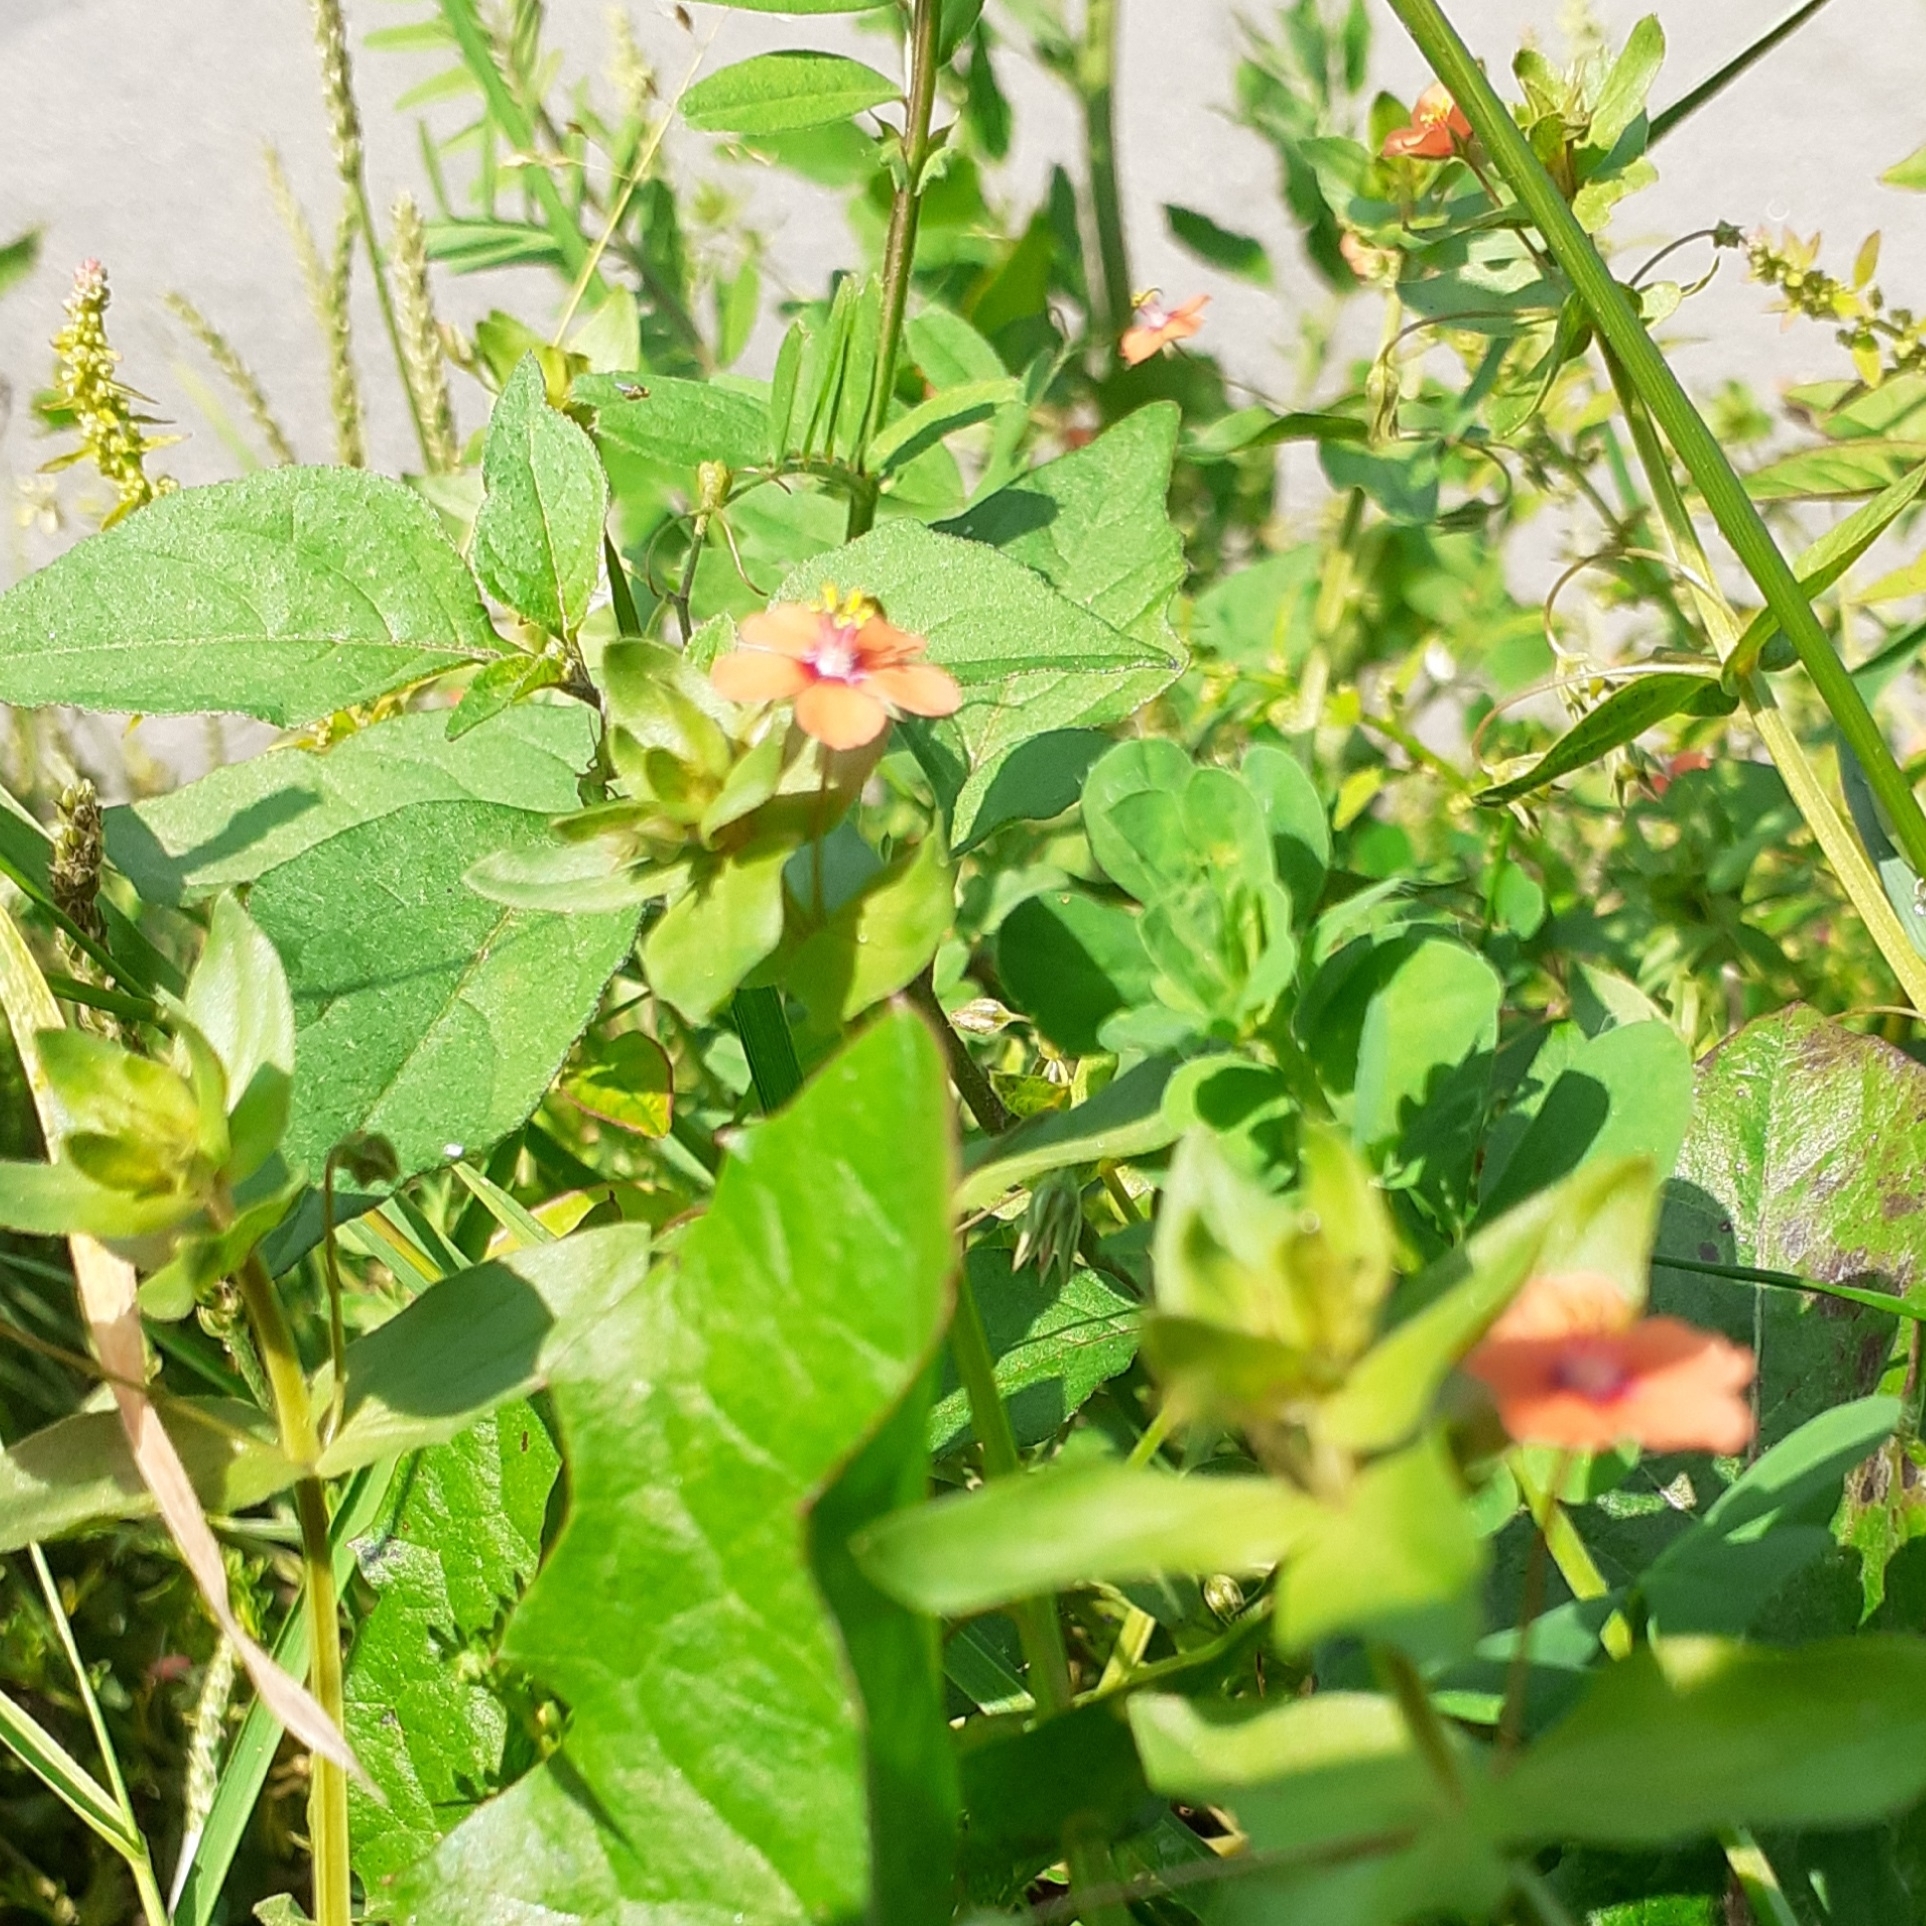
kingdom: Plantae
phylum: Tracheophyta
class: Magnoliopsida
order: Ericales
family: Primulaceae
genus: Lysimachia
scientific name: Lysimachia arvensis
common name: Scarlet pimpernel
